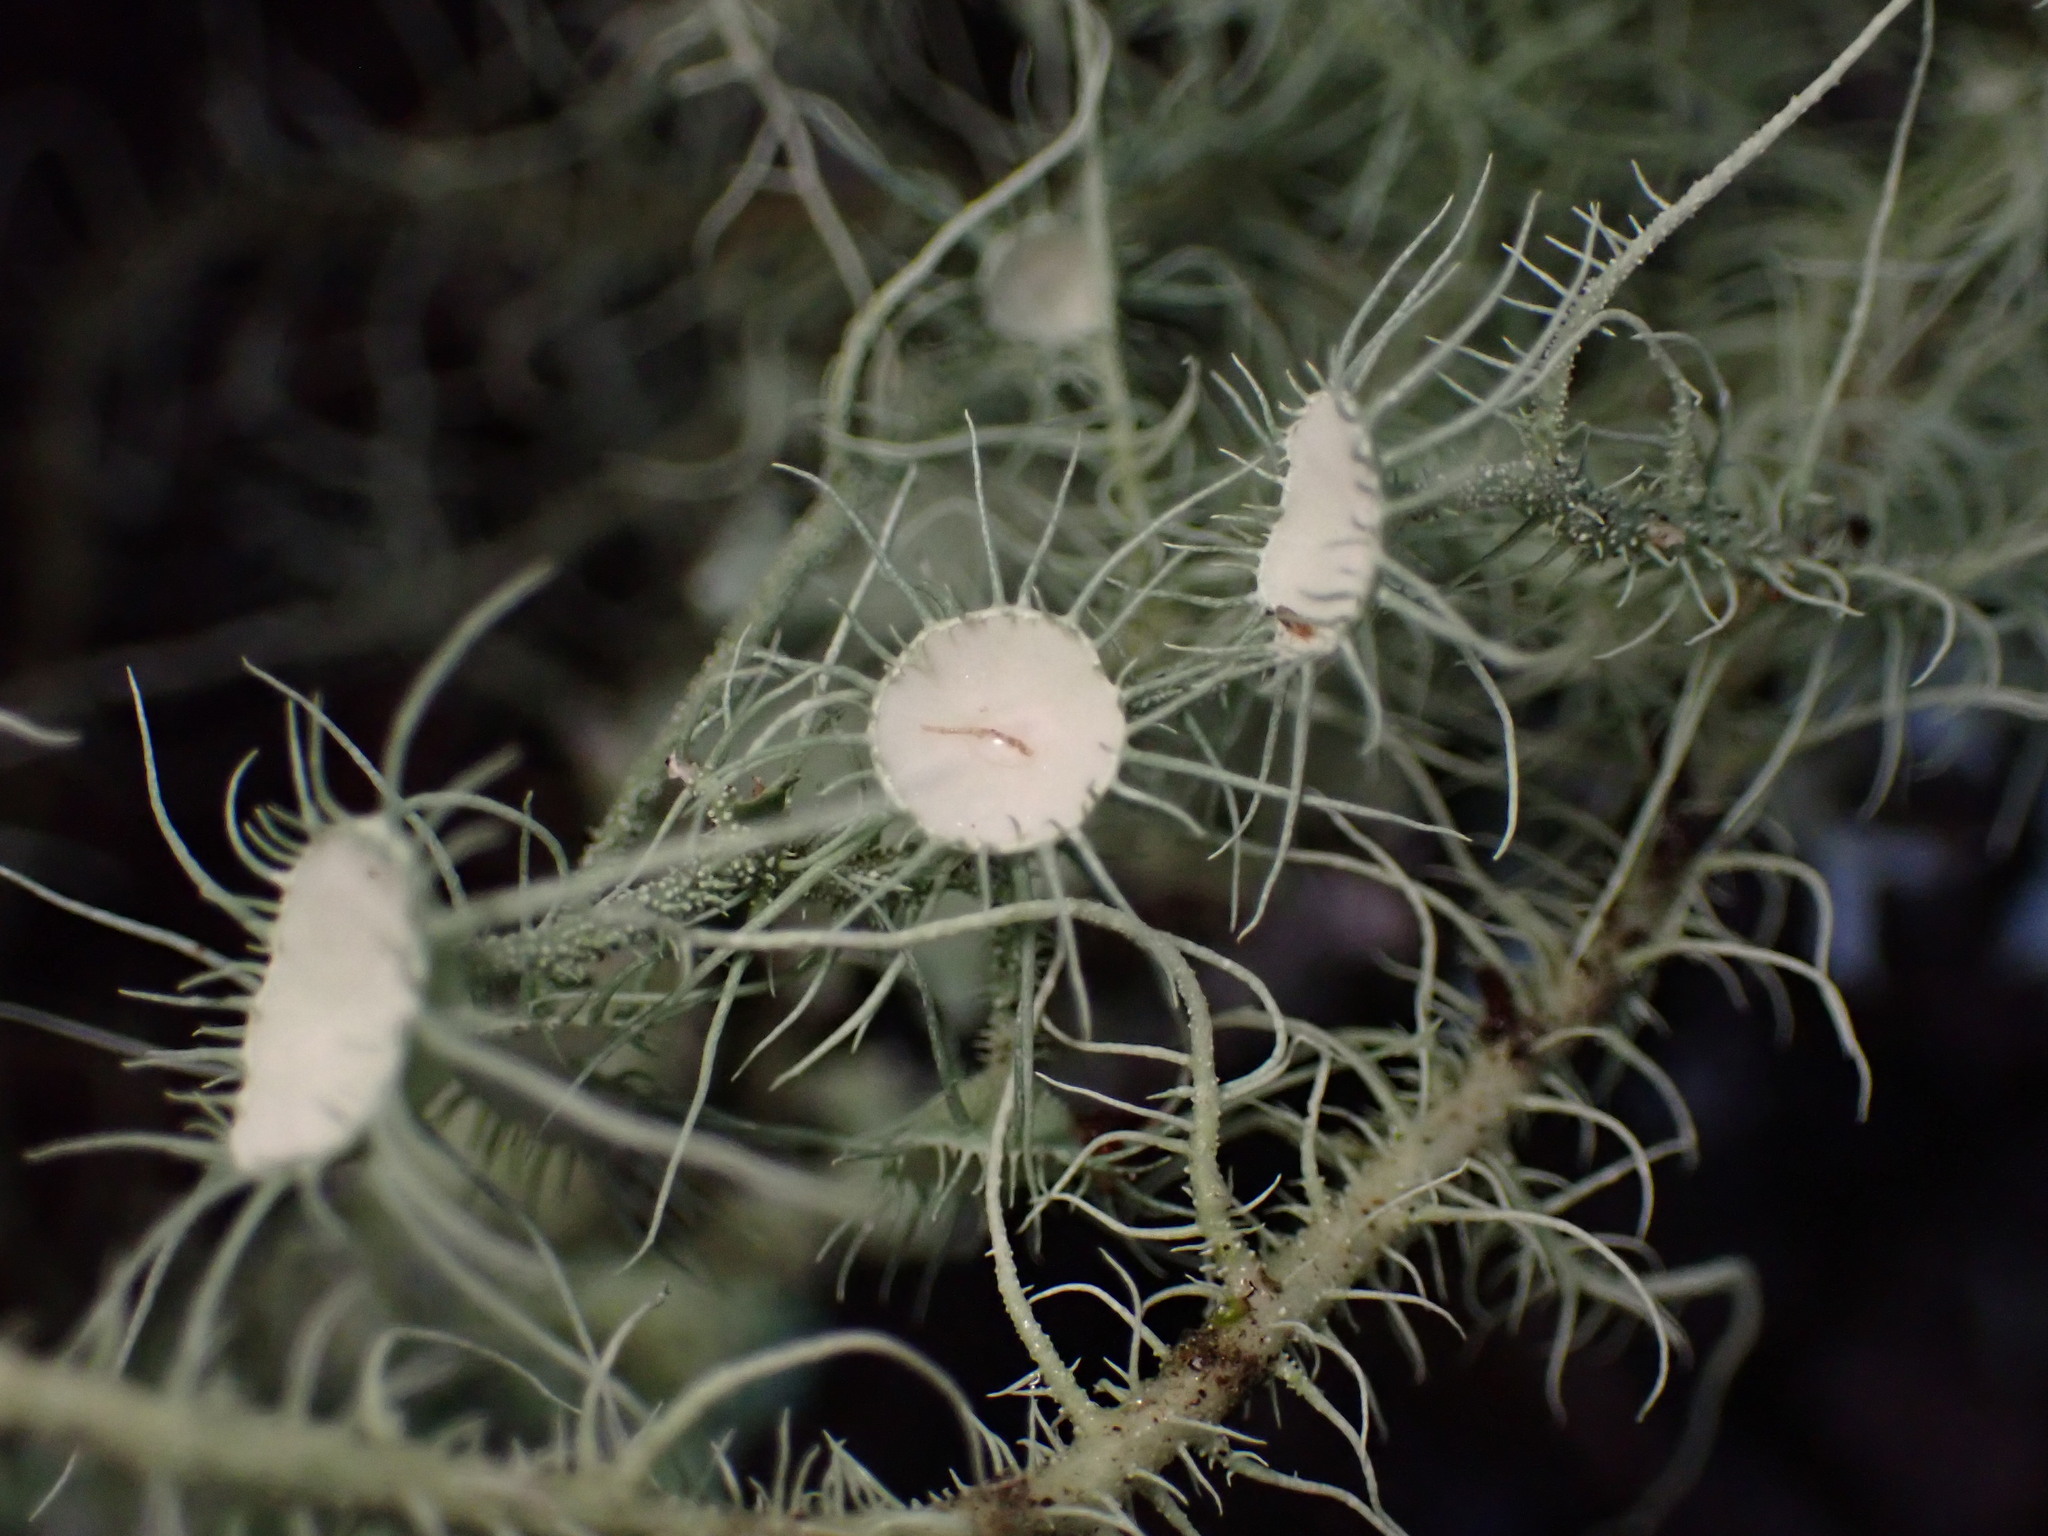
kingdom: Fungi
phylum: Ascomycota
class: Lecanoromycetes
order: Lecanorales
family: Parmeliaceae
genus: Usnea
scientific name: Usnea intermedia
